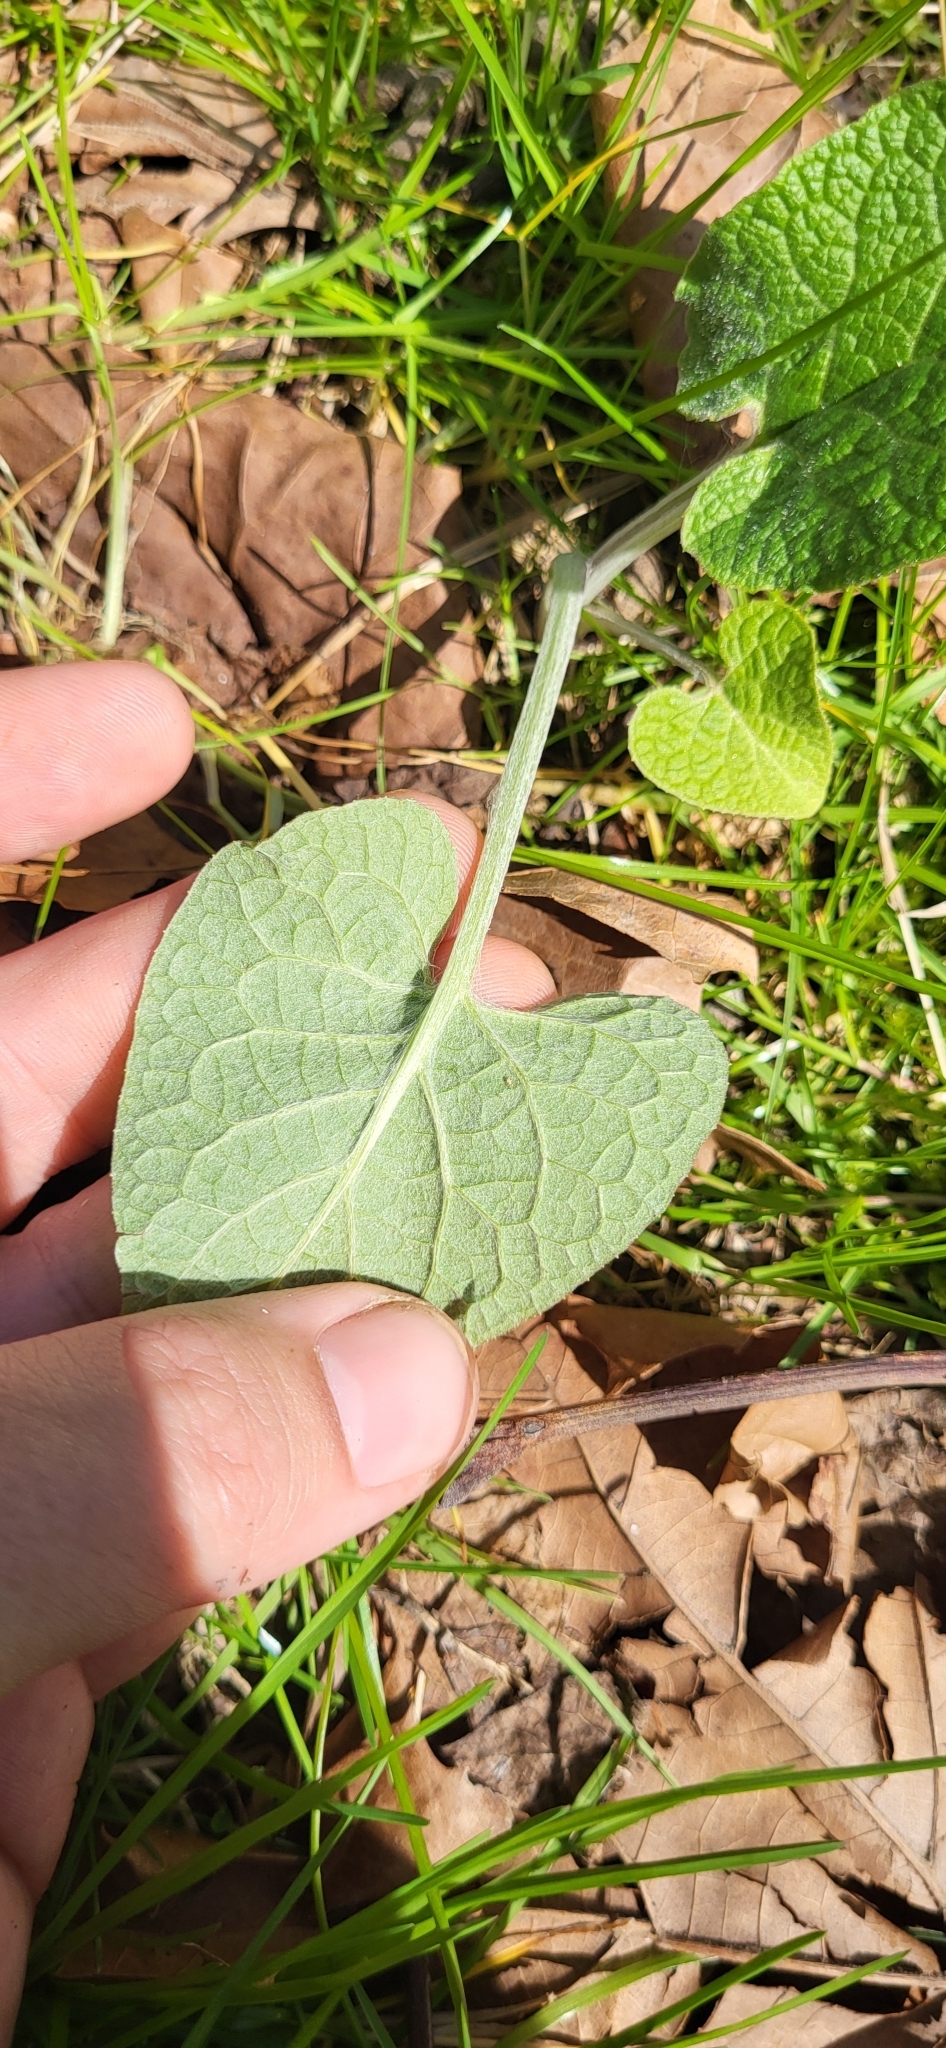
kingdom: Plantae
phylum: Tracheophyta
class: Magnoliopsida
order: Asterales
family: Asteraceae
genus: Arctium
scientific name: Arctium
